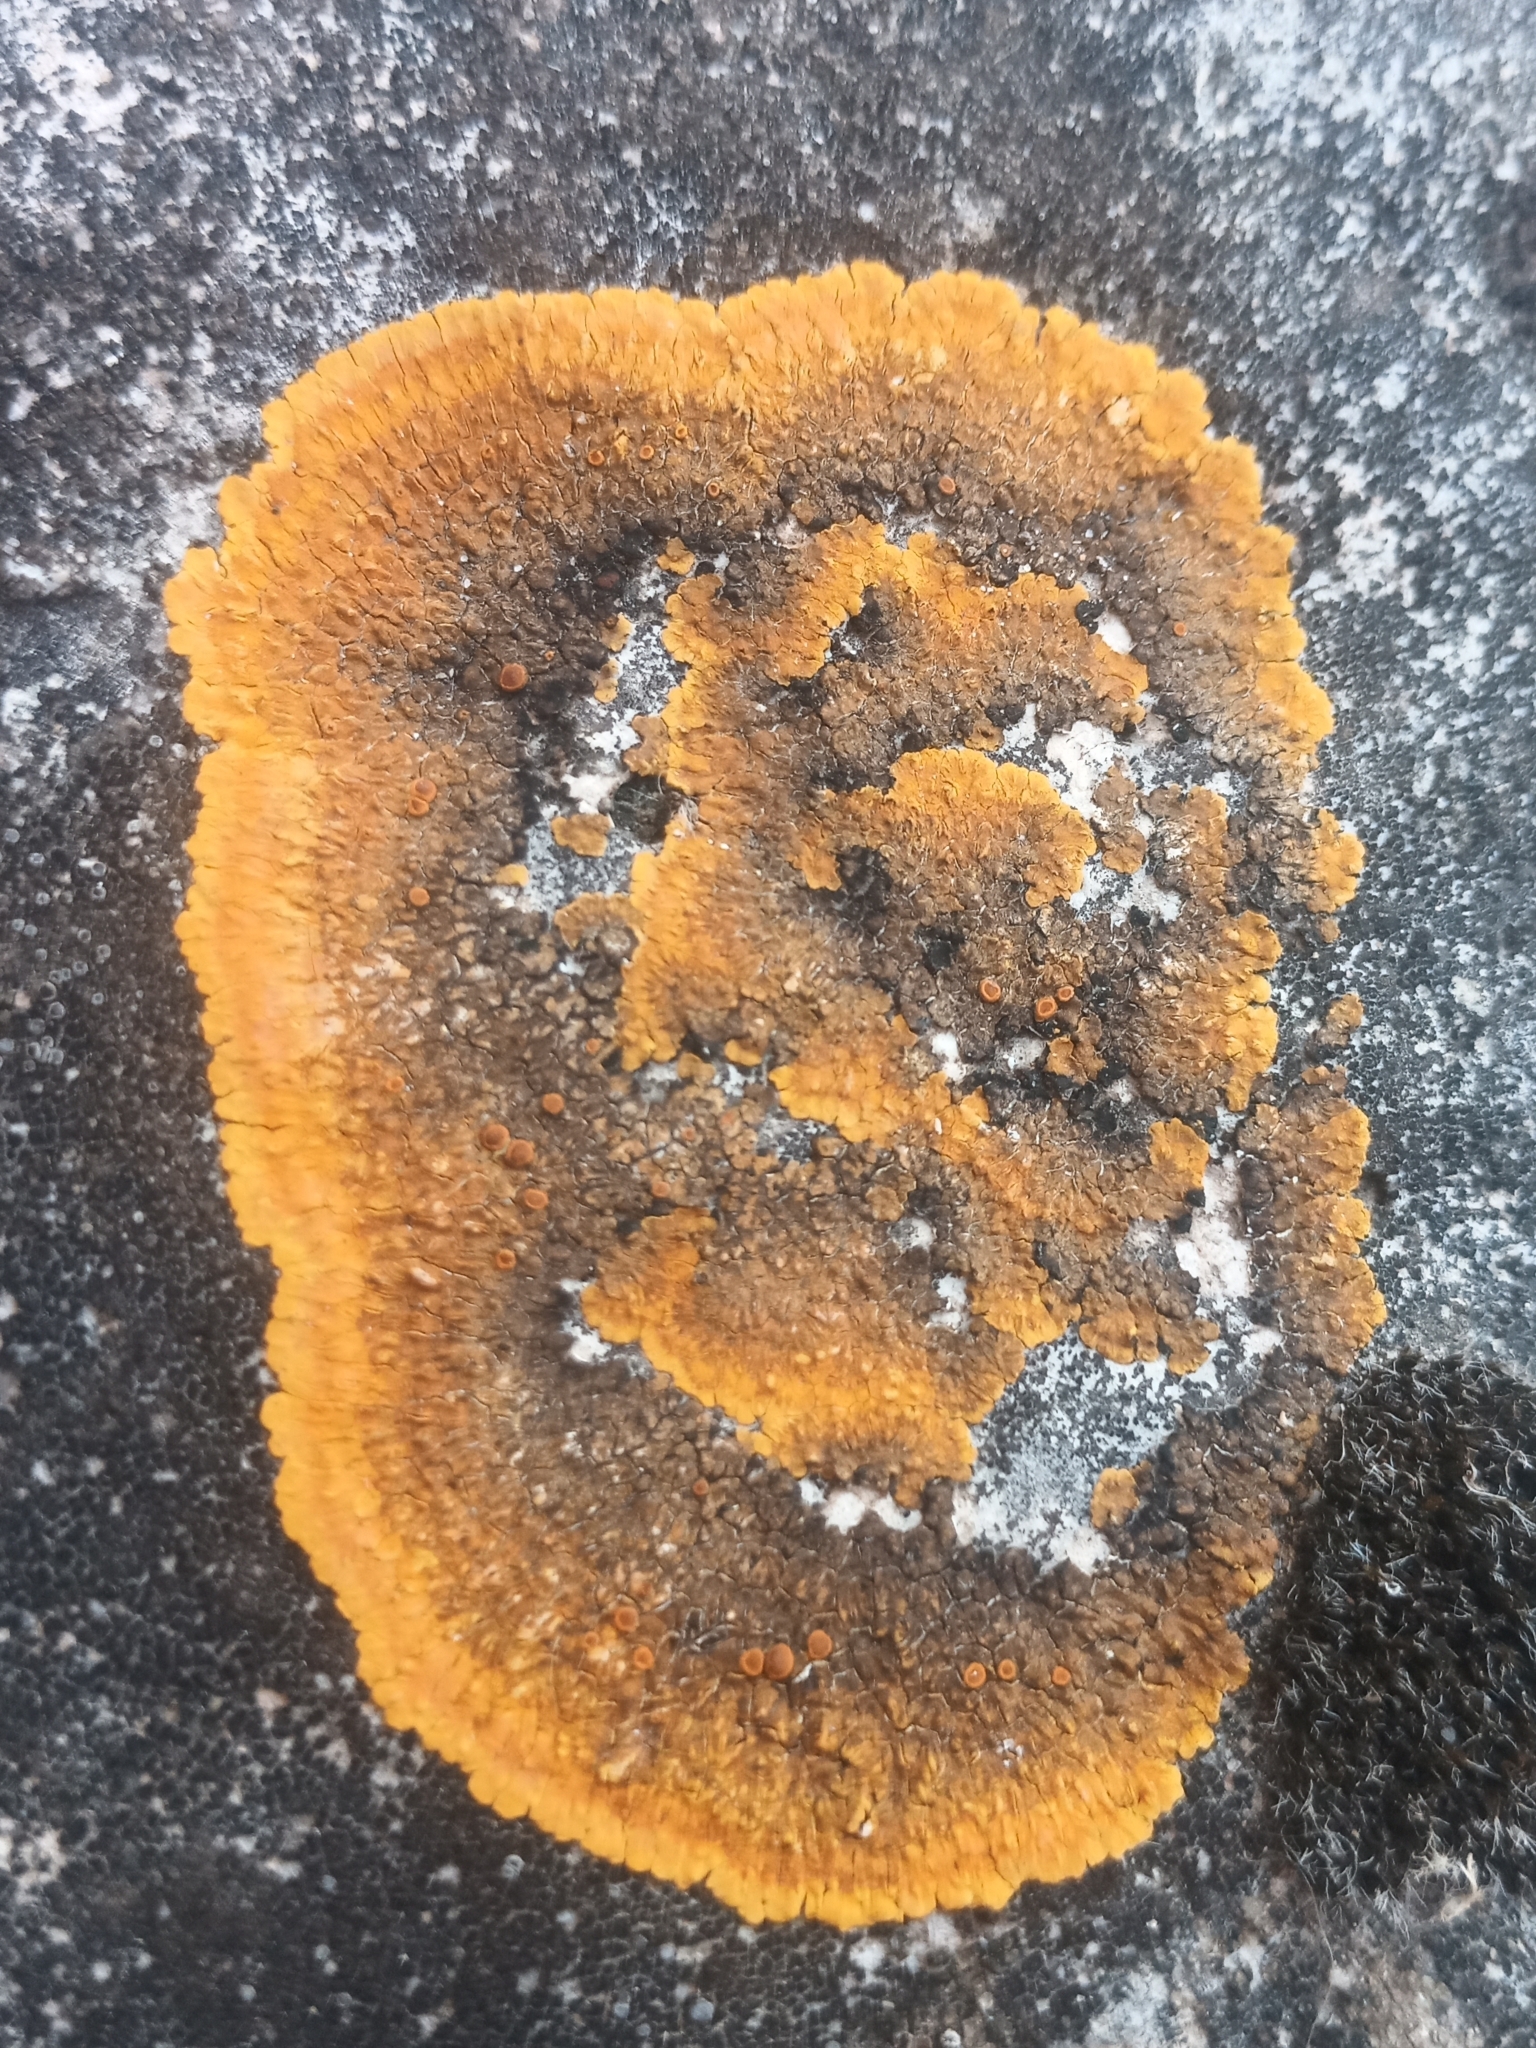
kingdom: Fungi
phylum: Ascomycota
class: Lecanoromycetes
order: Teloschistales
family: Teloschistaceae
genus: Variospora
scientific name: Variospora aurantia
